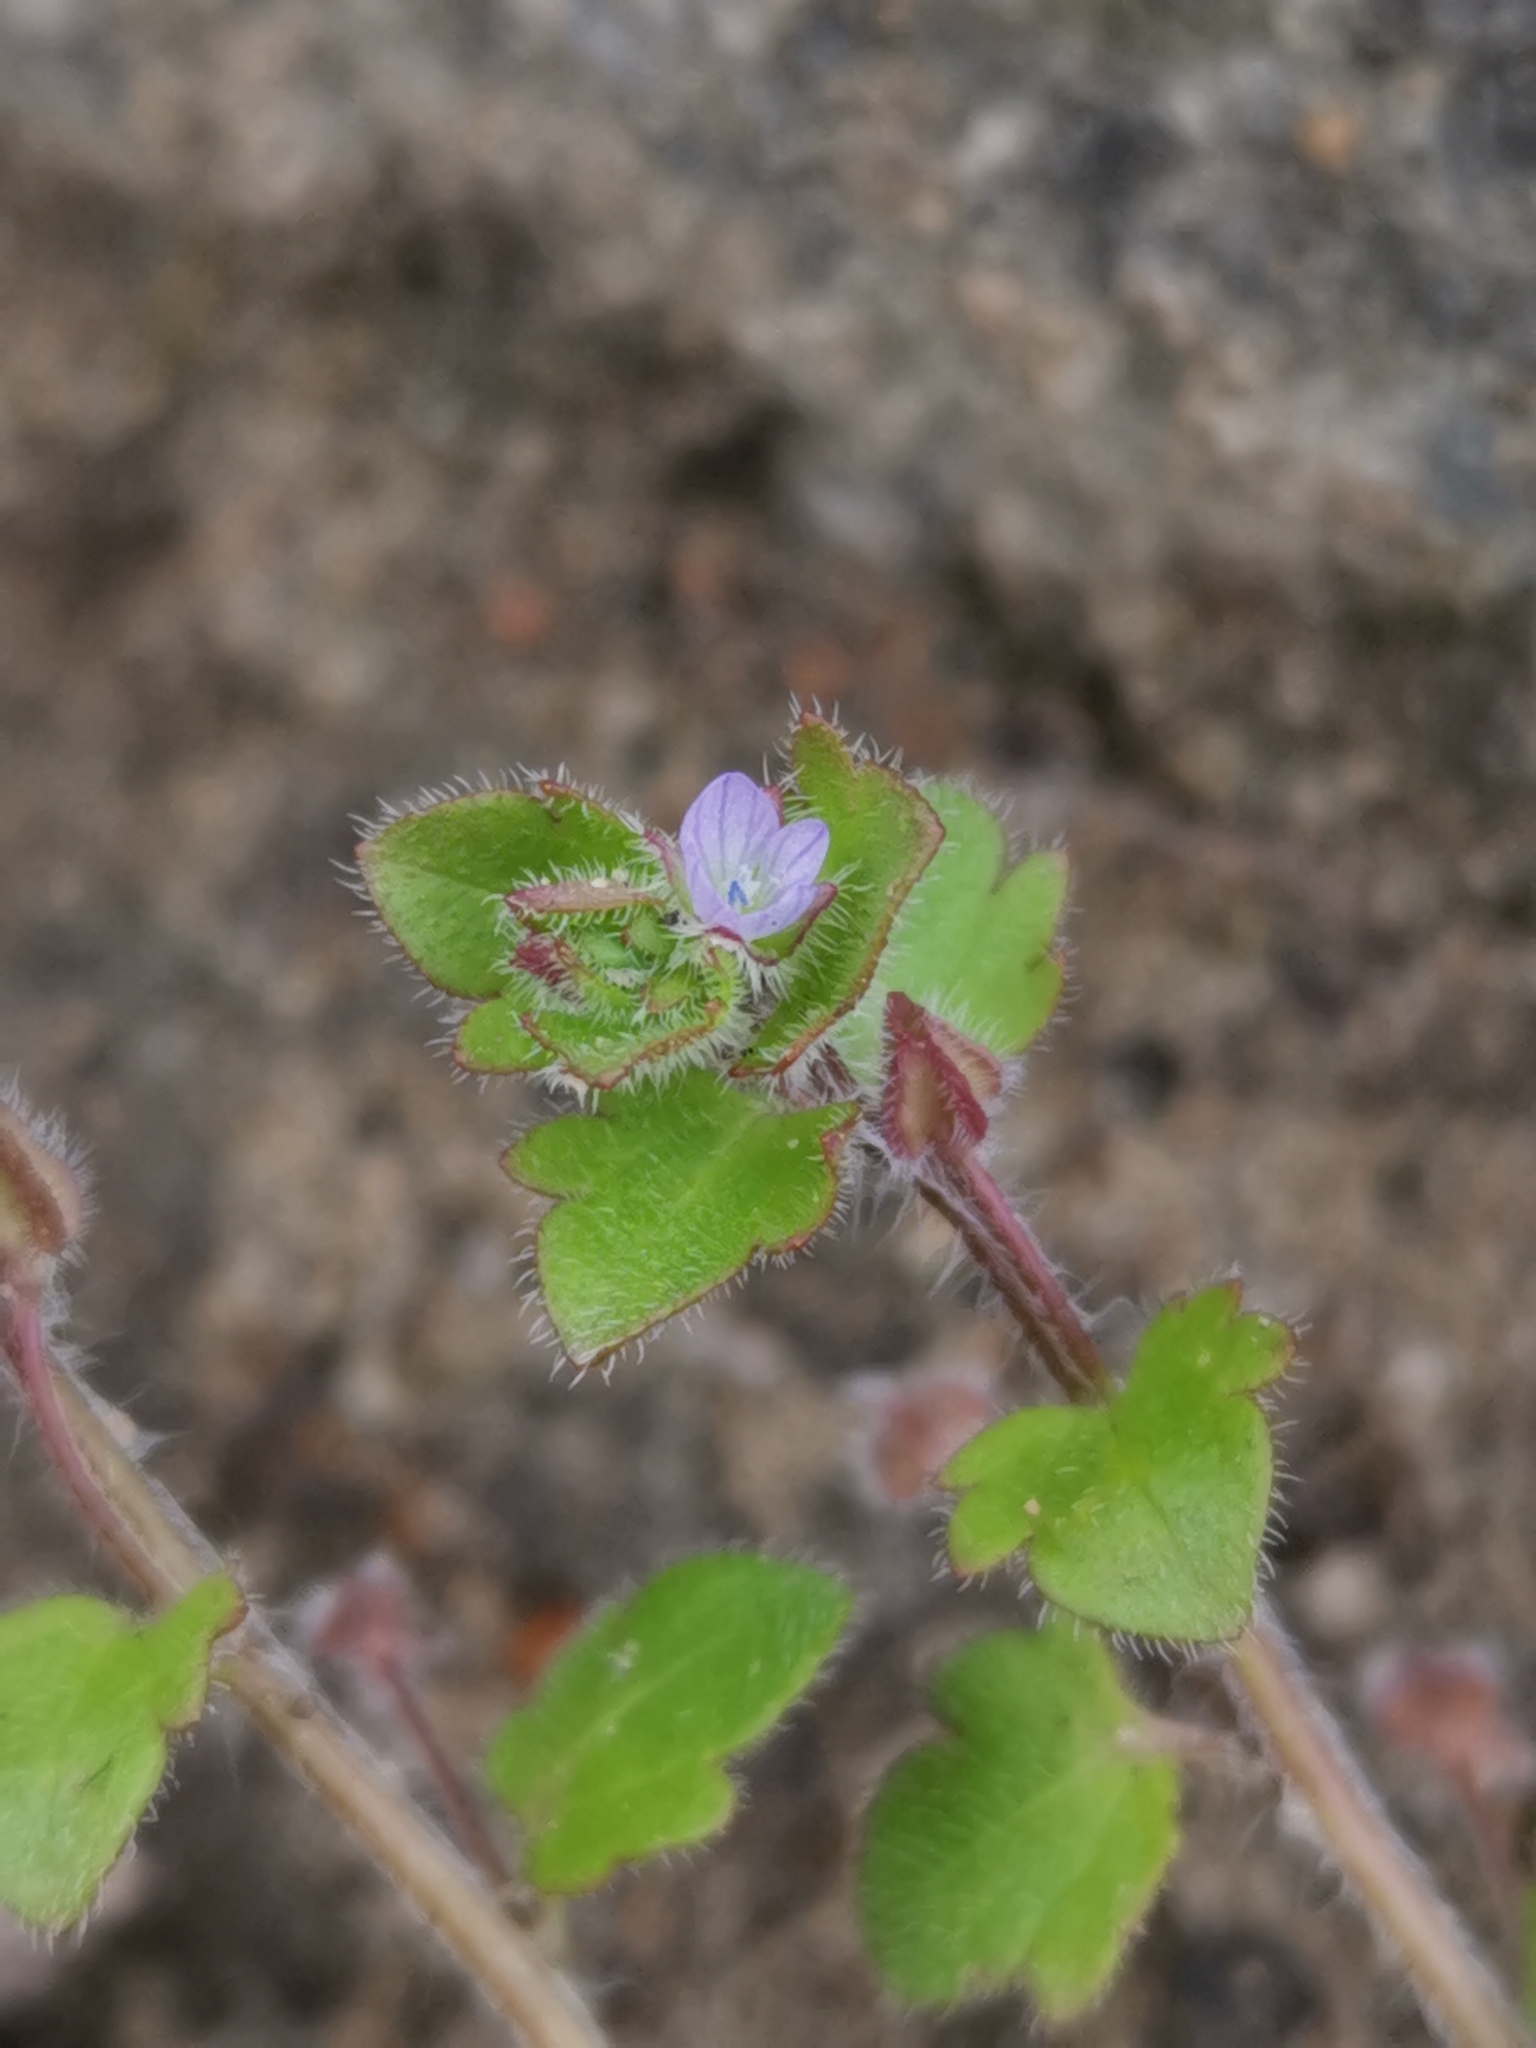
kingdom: Plantae
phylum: Tracheophyta
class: Magnoliopsida
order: Lamiales
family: Plantaginaceae
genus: Veronica
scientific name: Veronica sublobata
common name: False ivy-leaved speedwell
